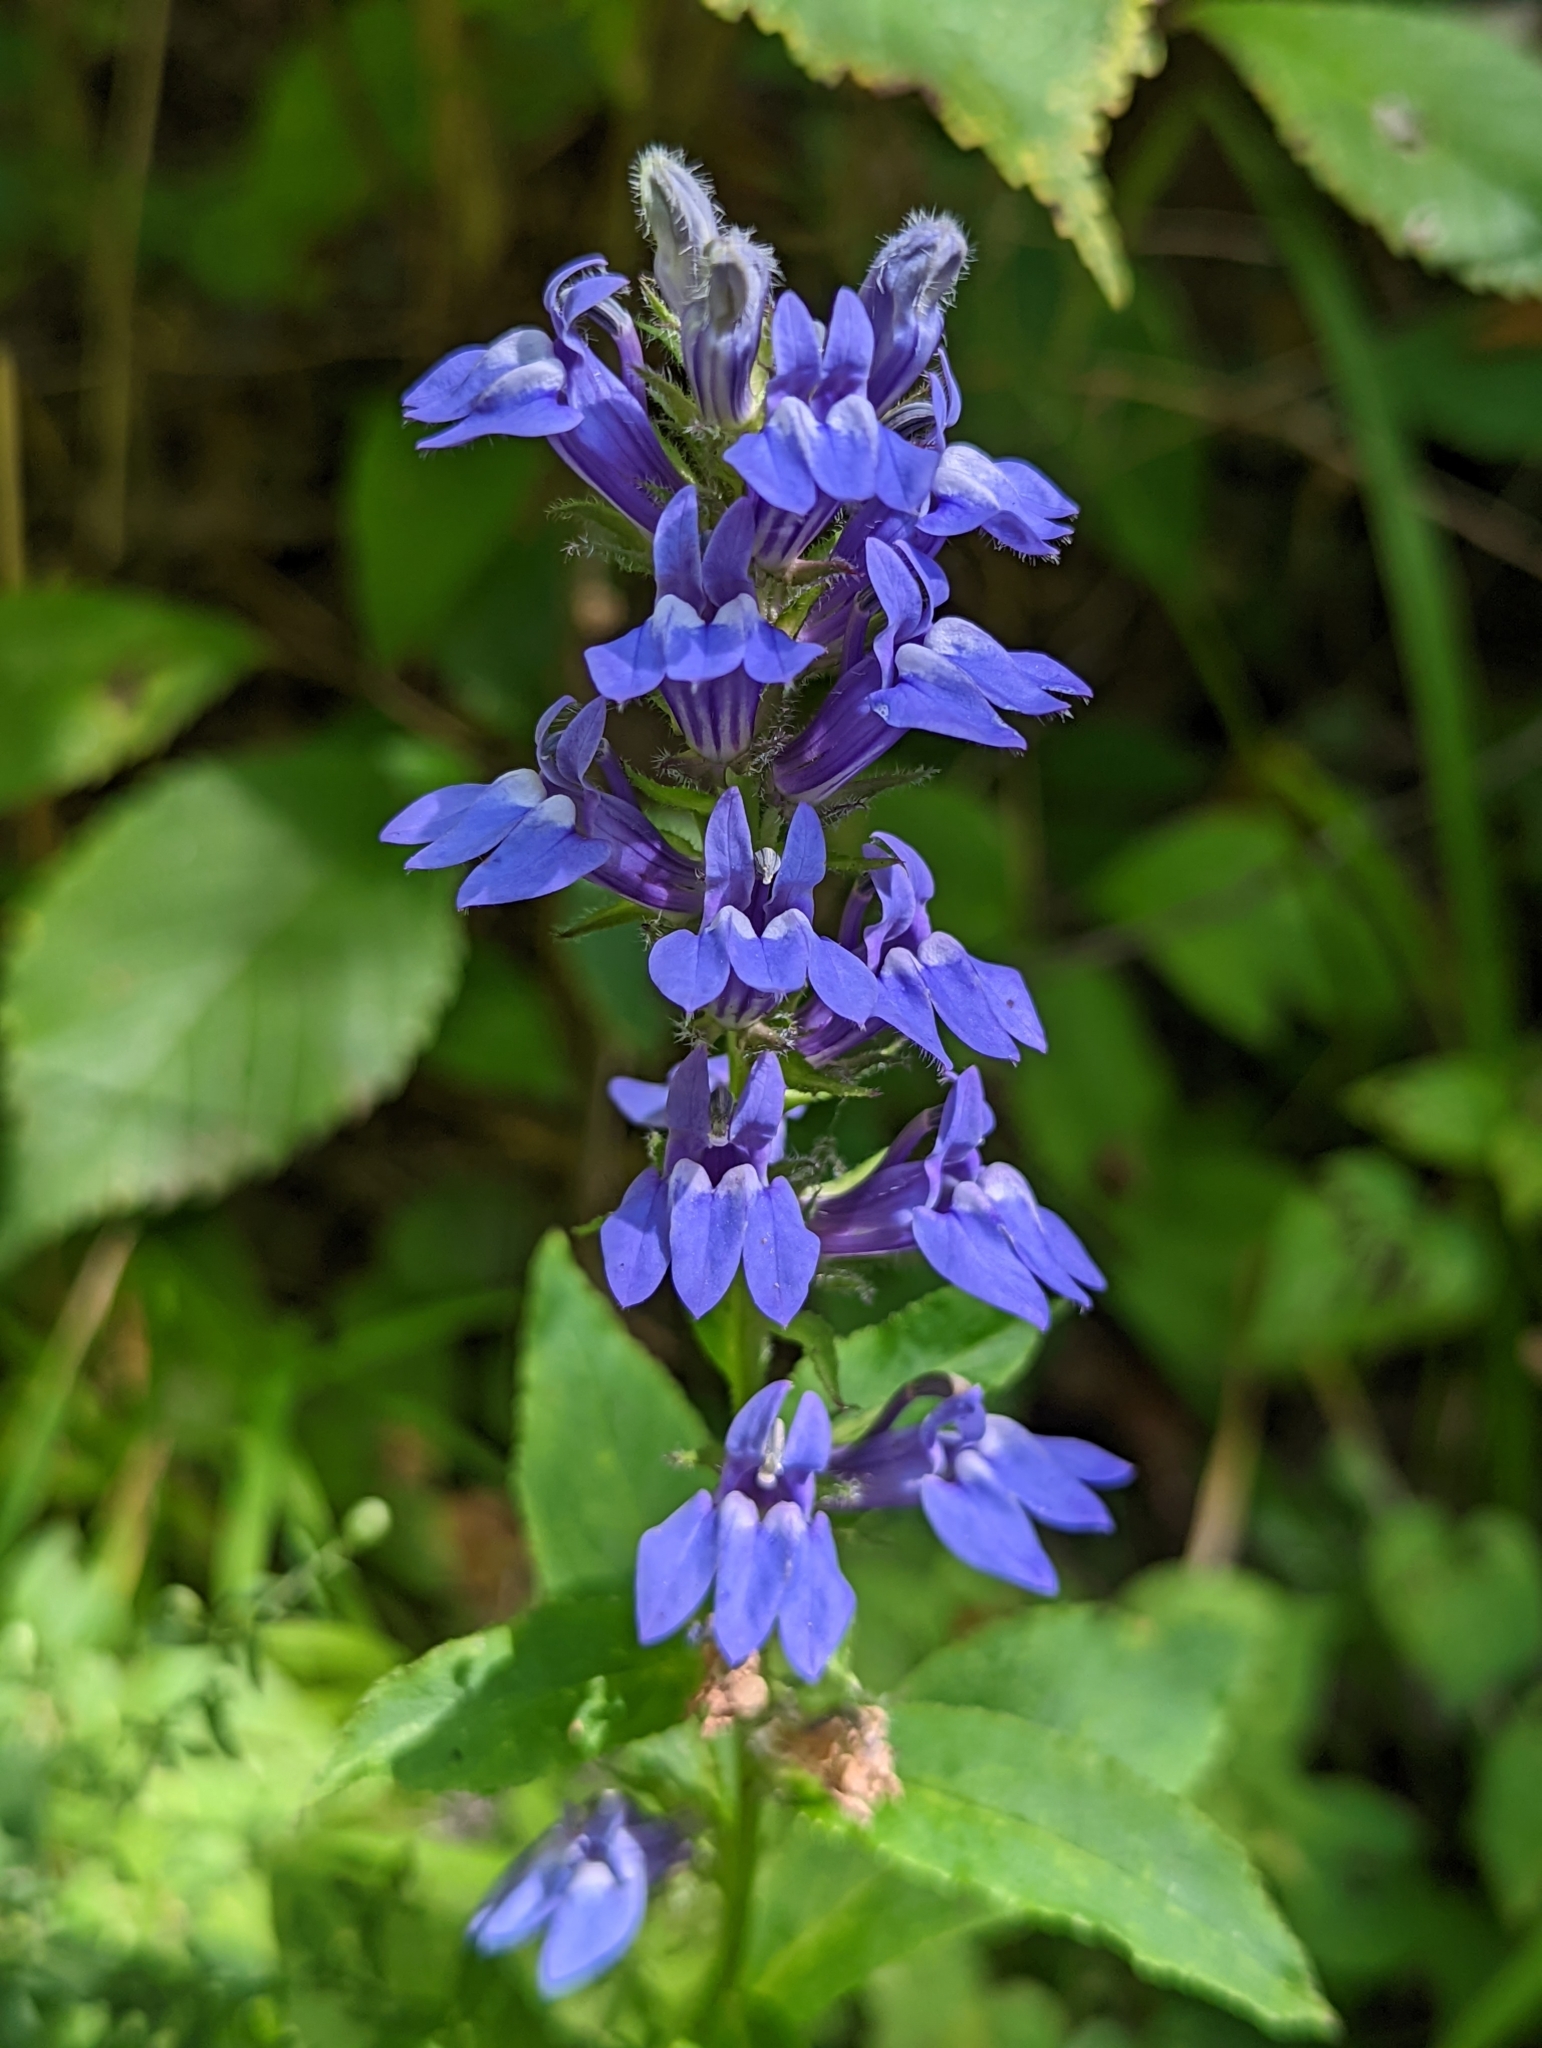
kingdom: Plantae
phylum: Tracheophyta
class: Magnoliopsida
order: Asterales
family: Campanulaceae
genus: Lobelia
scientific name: Lobelia siphilitica
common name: Great lobelia
